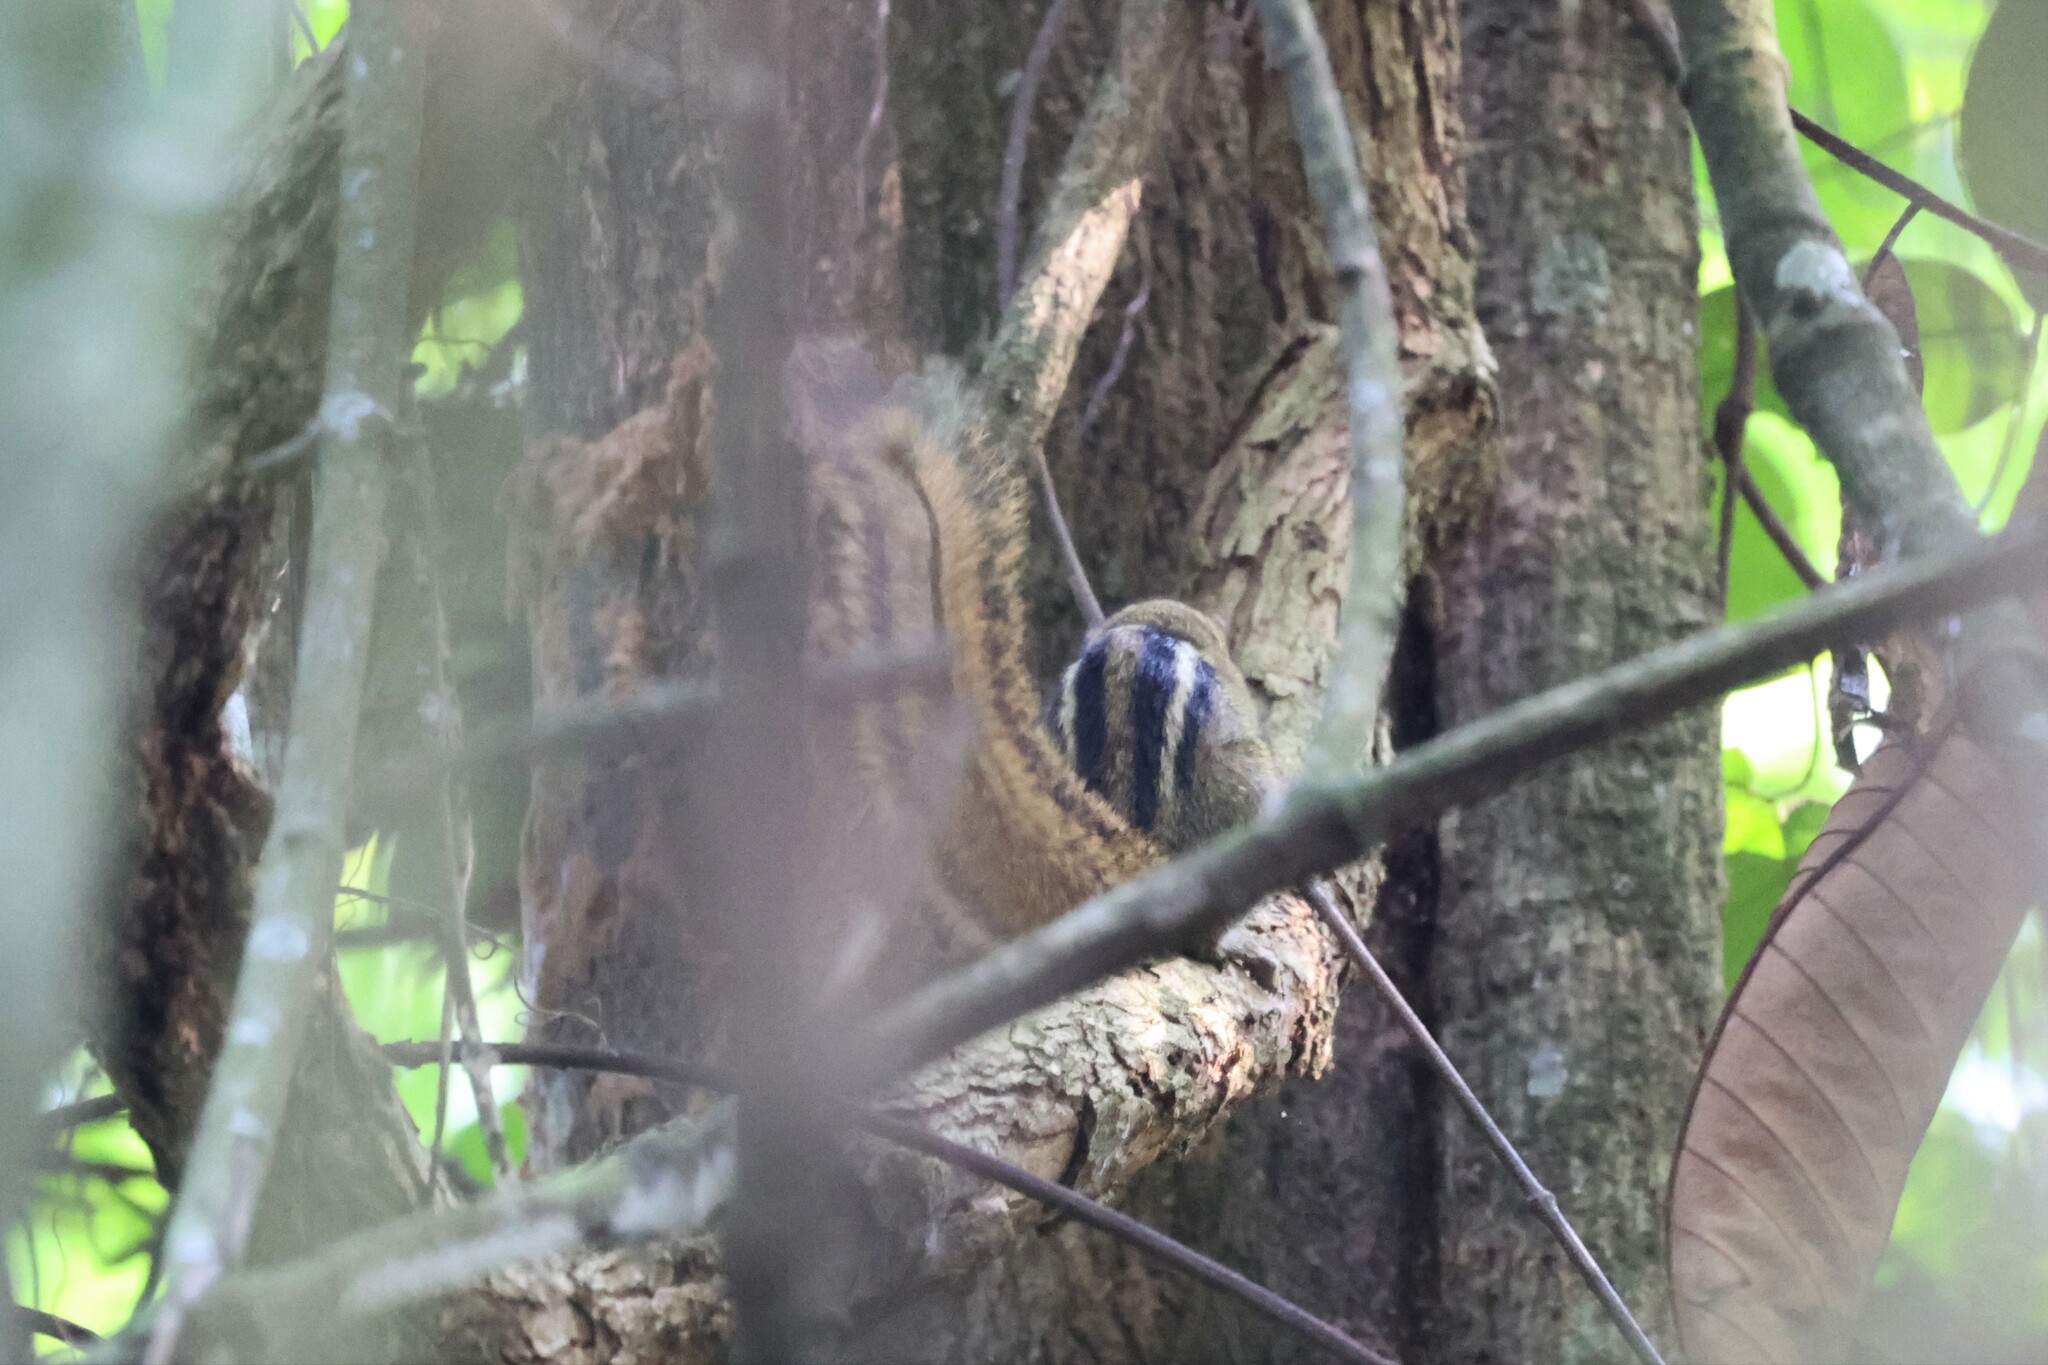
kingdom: Animalia
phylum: Chordata
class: Mammalia
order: Rodentia
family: Sciuridae
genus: Paraxerus
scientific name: Paraxerus boehmi
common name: Boehm's bush squirrel
